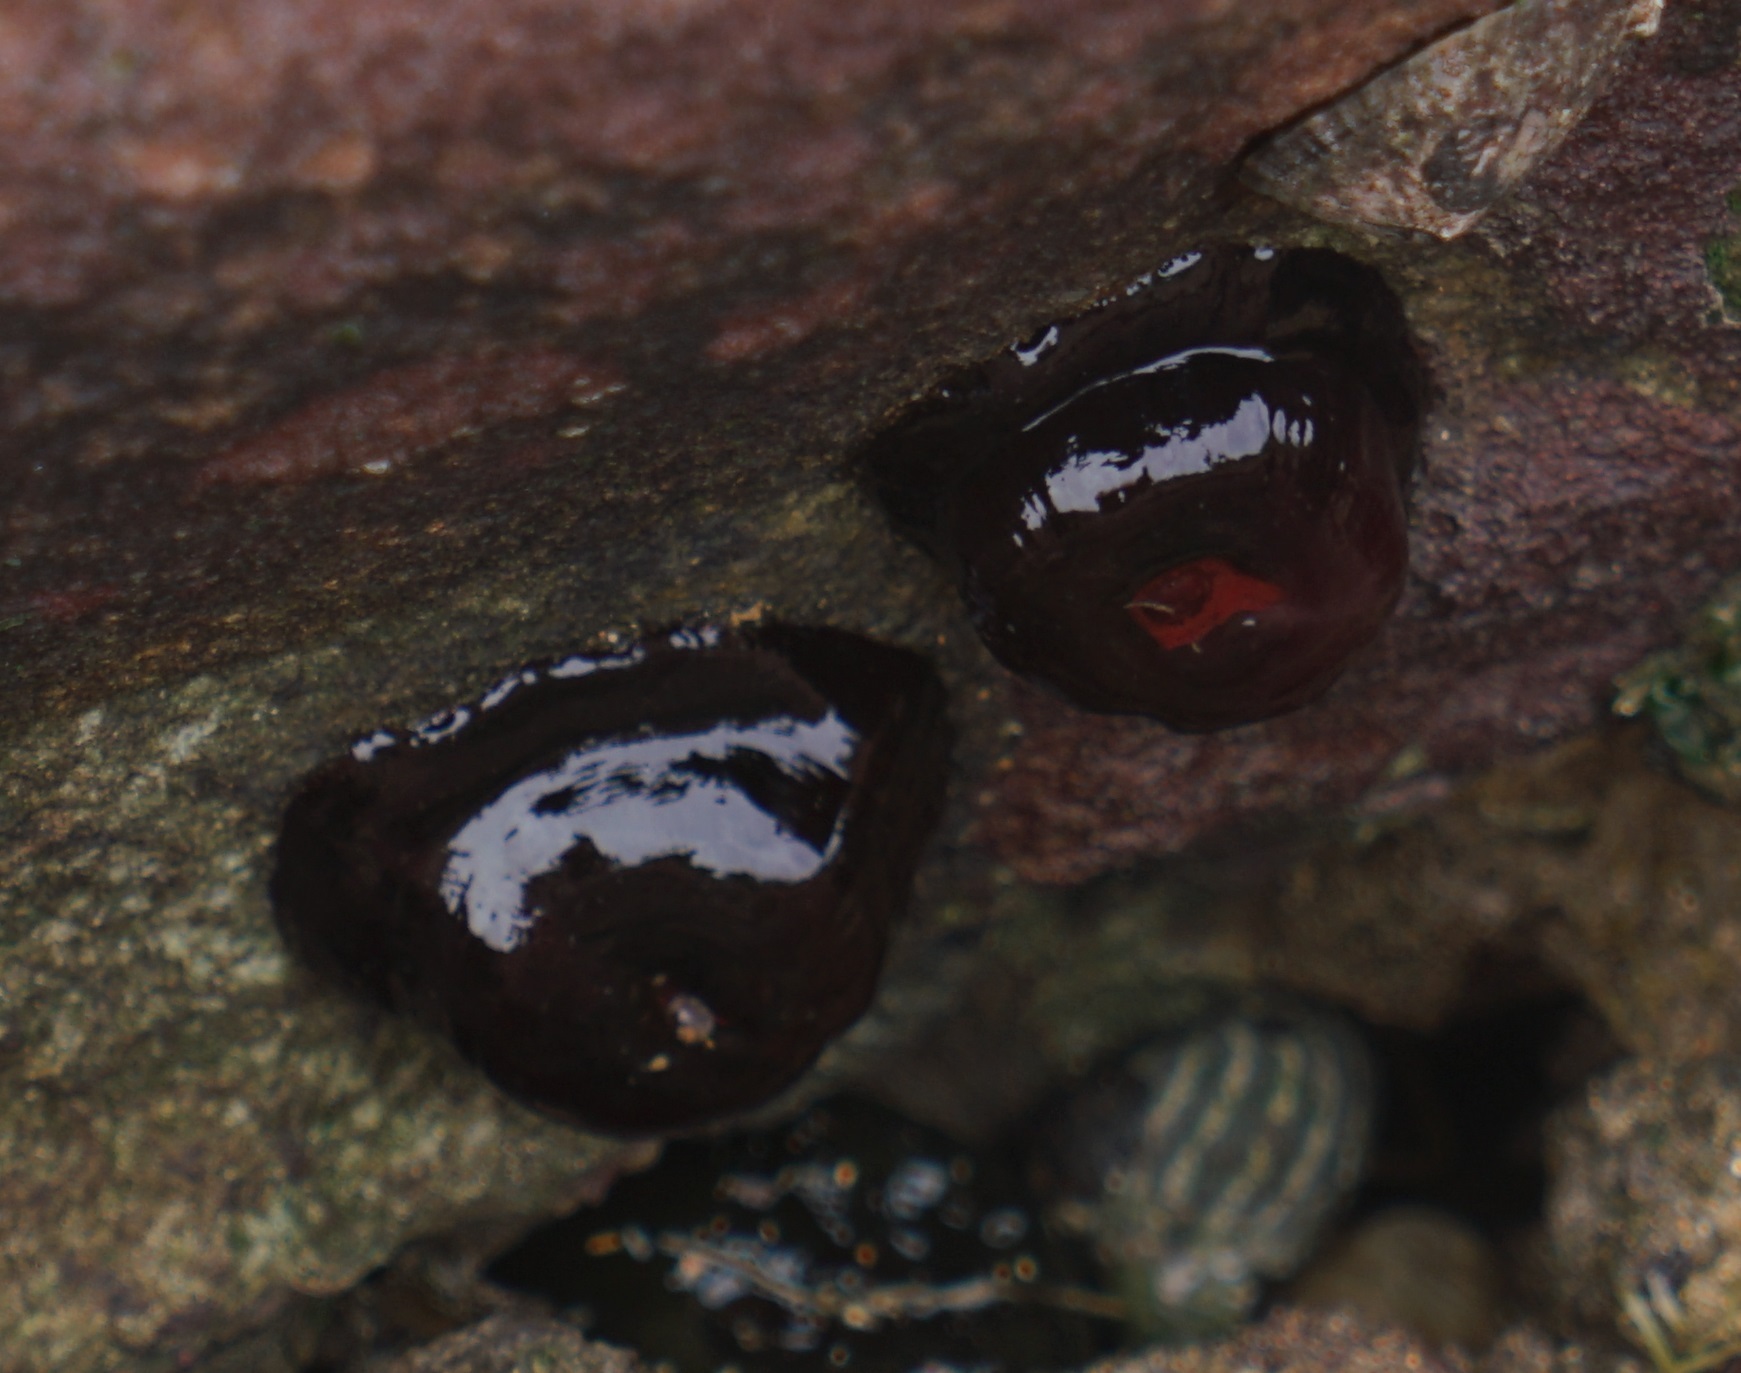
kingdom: Animalia
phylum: Cnidaria
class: Anthozoa
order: Actiniaria
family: Actiniidae
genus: Actinia
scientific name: Actinia tenebrosa
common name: Waratah anemone
